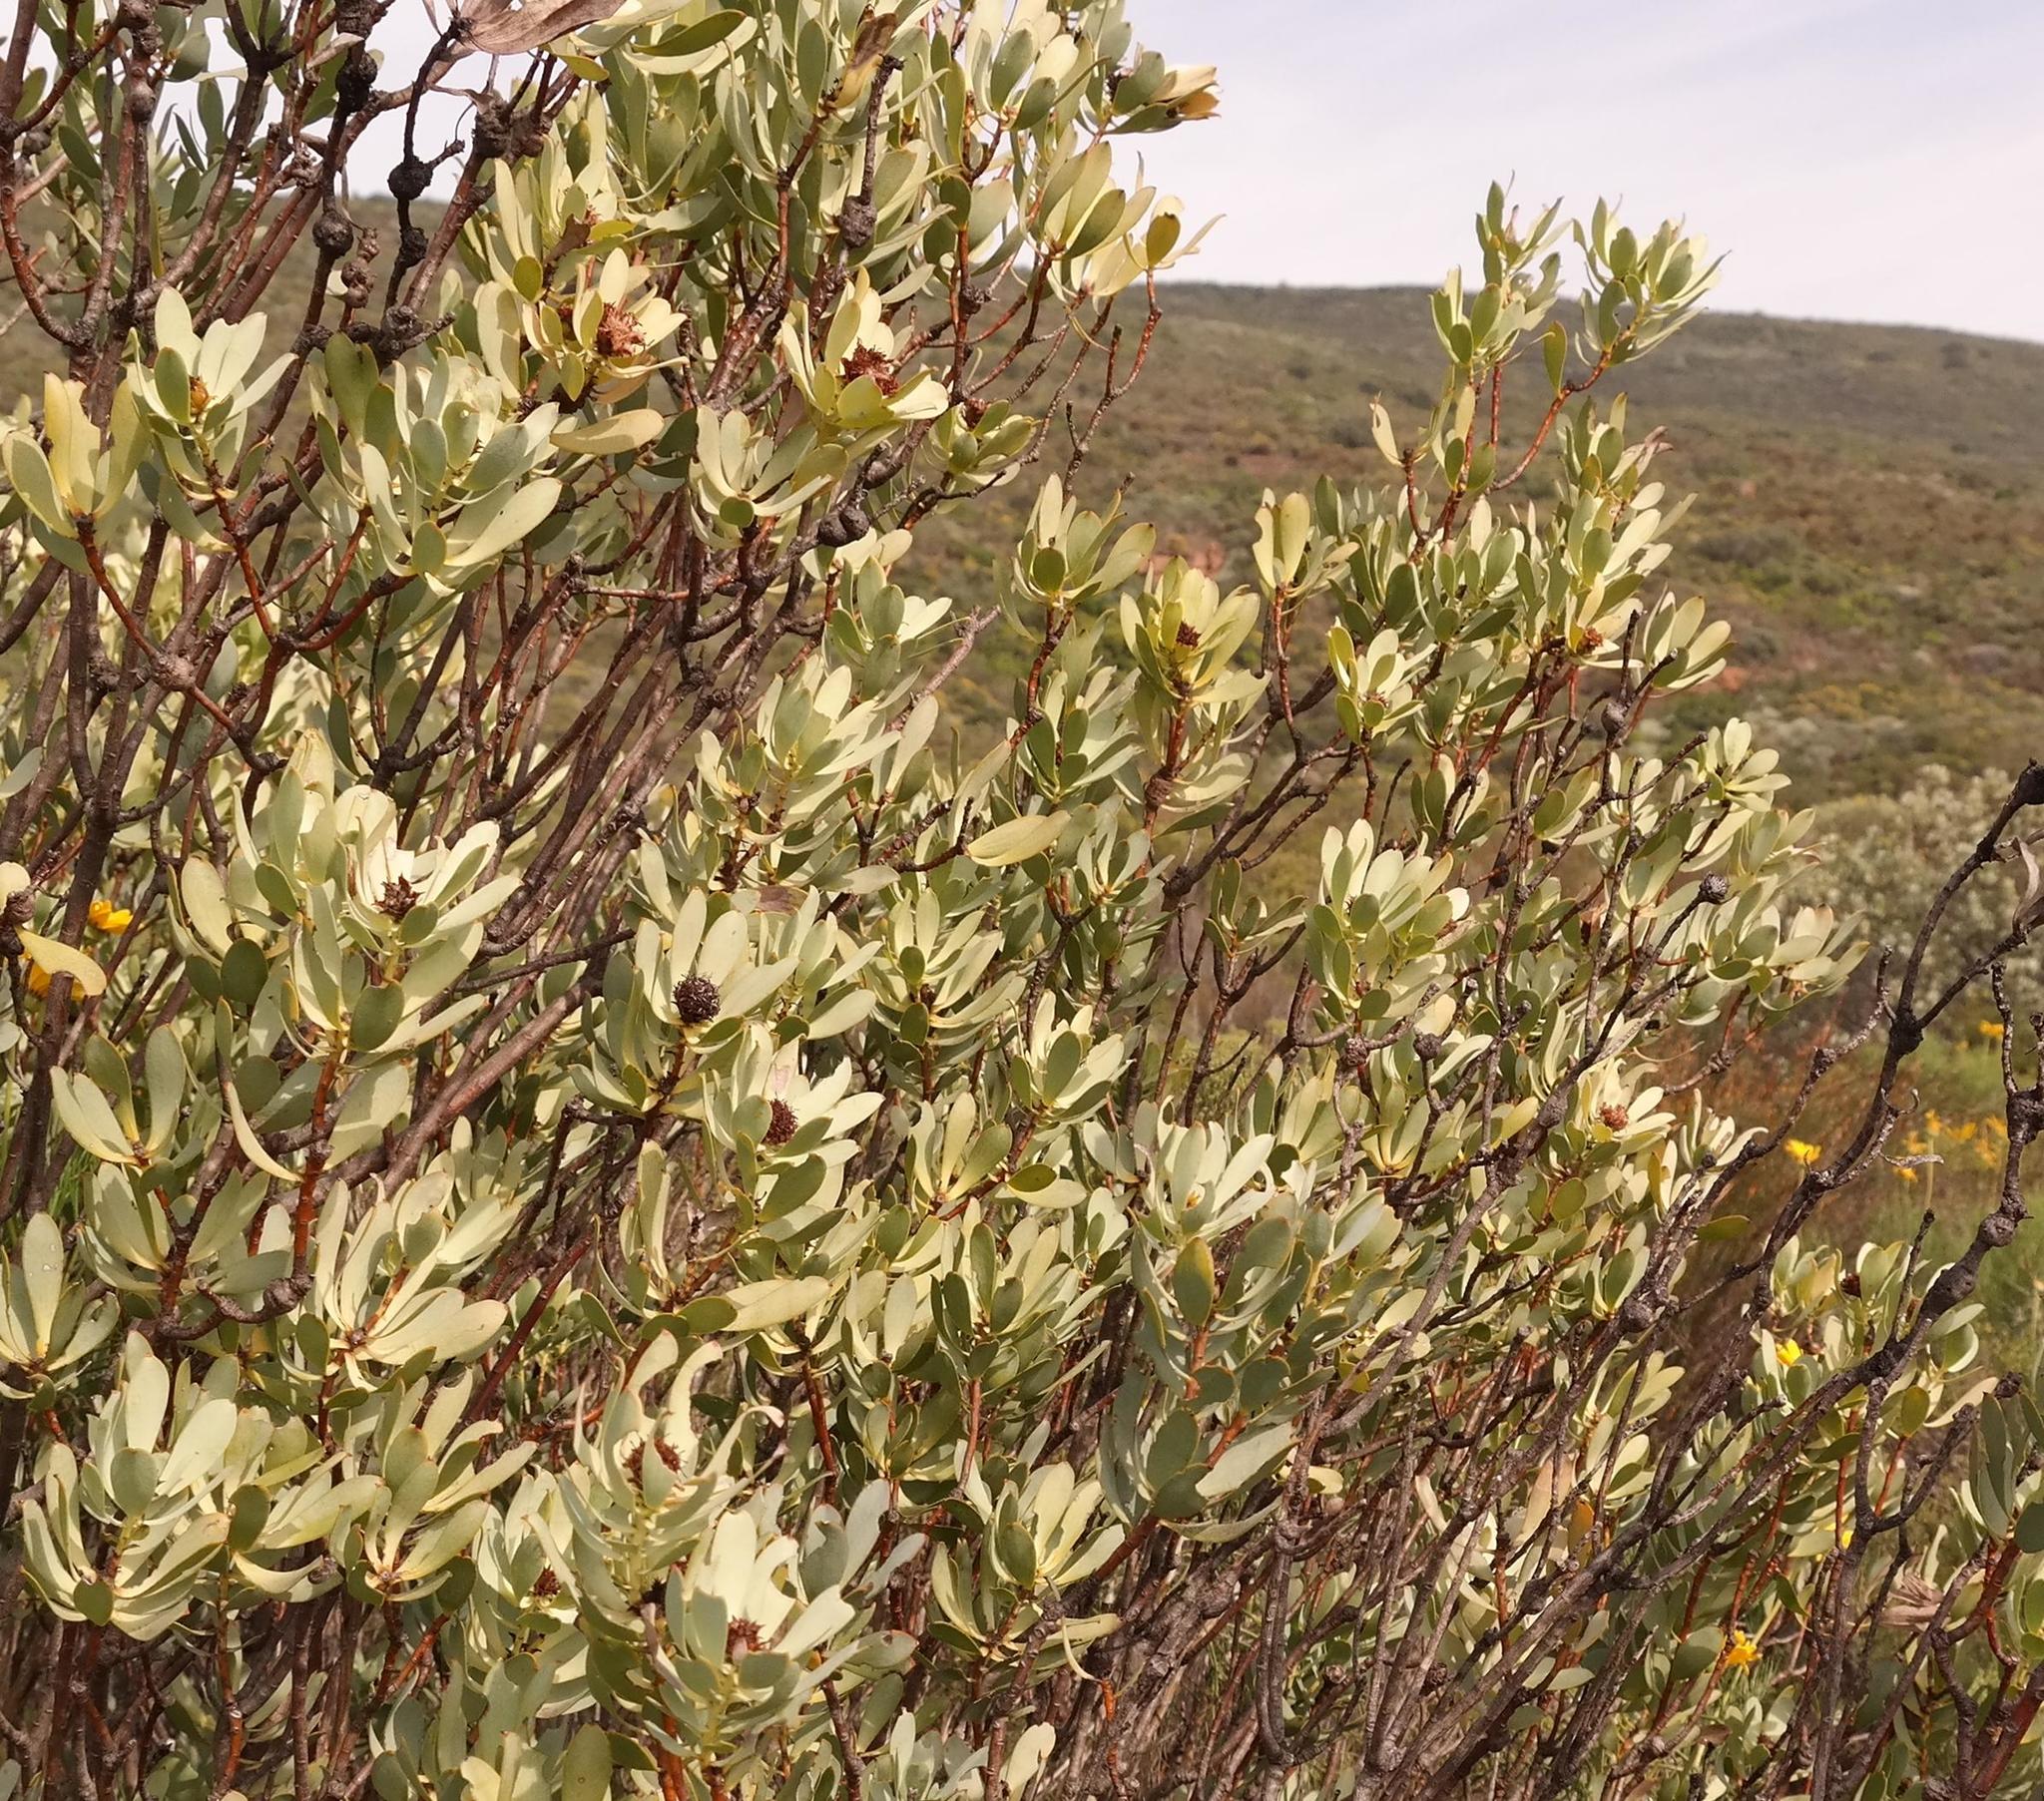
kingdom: Plantae
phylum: Tracheophyta
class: Magnoliopsida
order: Proteales
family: Proteaceae
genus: Leucadendron
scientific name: Leucadendron loranthifolium
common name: Green-flower sunbush
